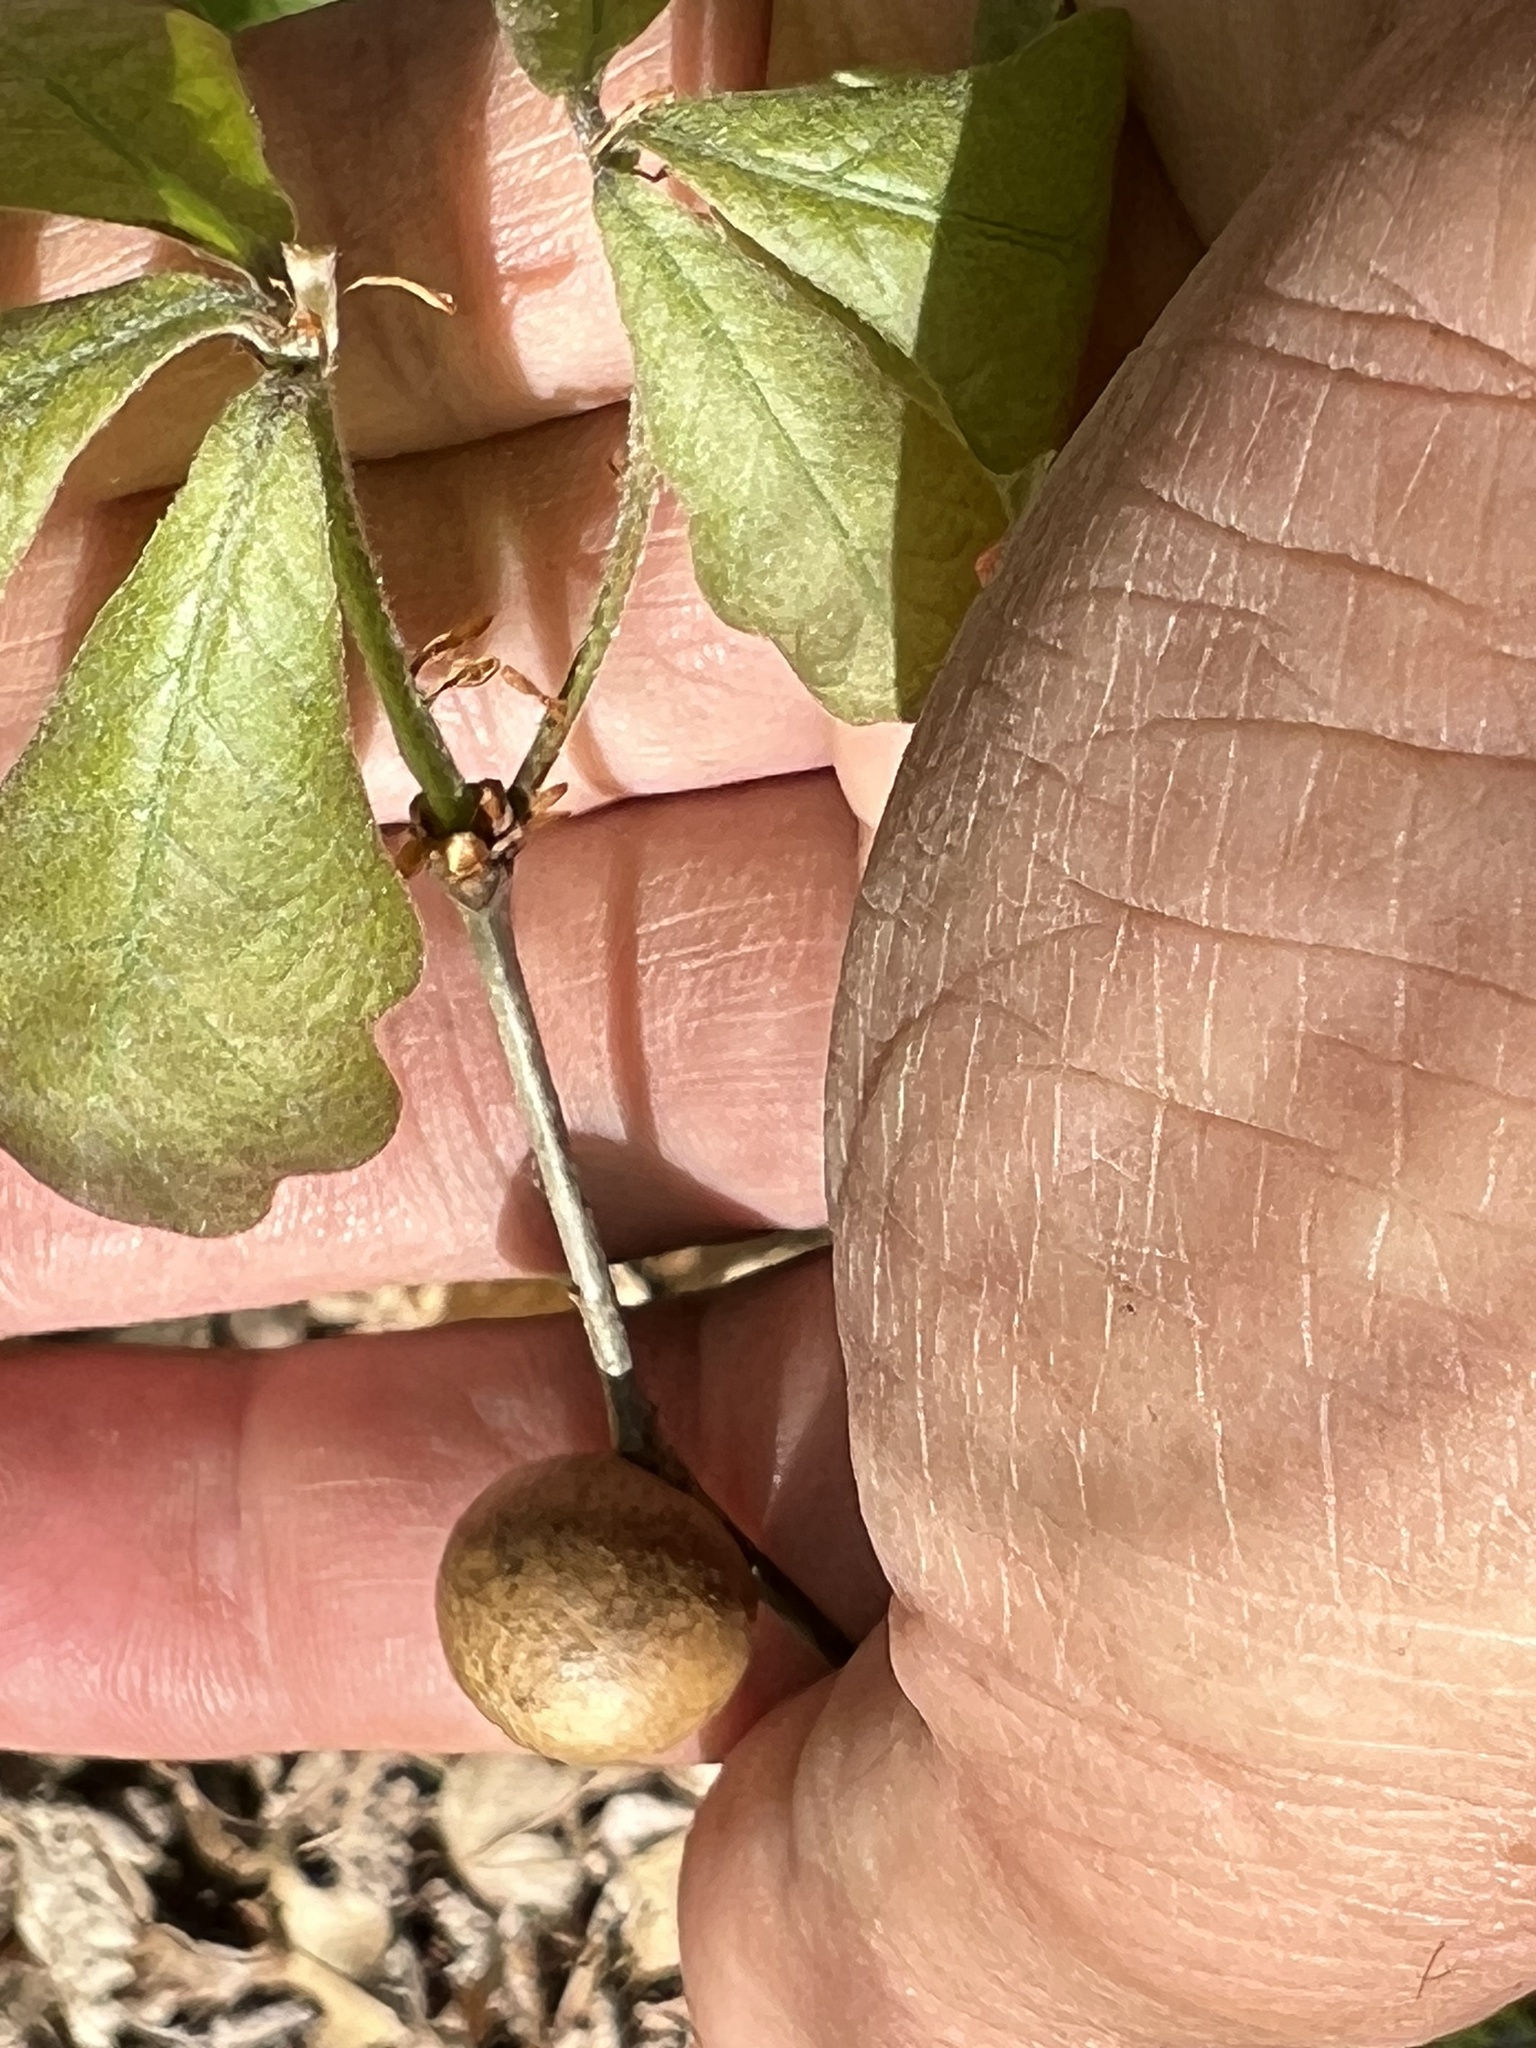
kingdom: Animalia
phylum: Arthropoda
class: Insecta
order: Hymenoptera
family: Cynipidae
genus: Disholcaspis
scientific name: Disholcaspis quercusglobulus
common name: Round bullet gall wasp
